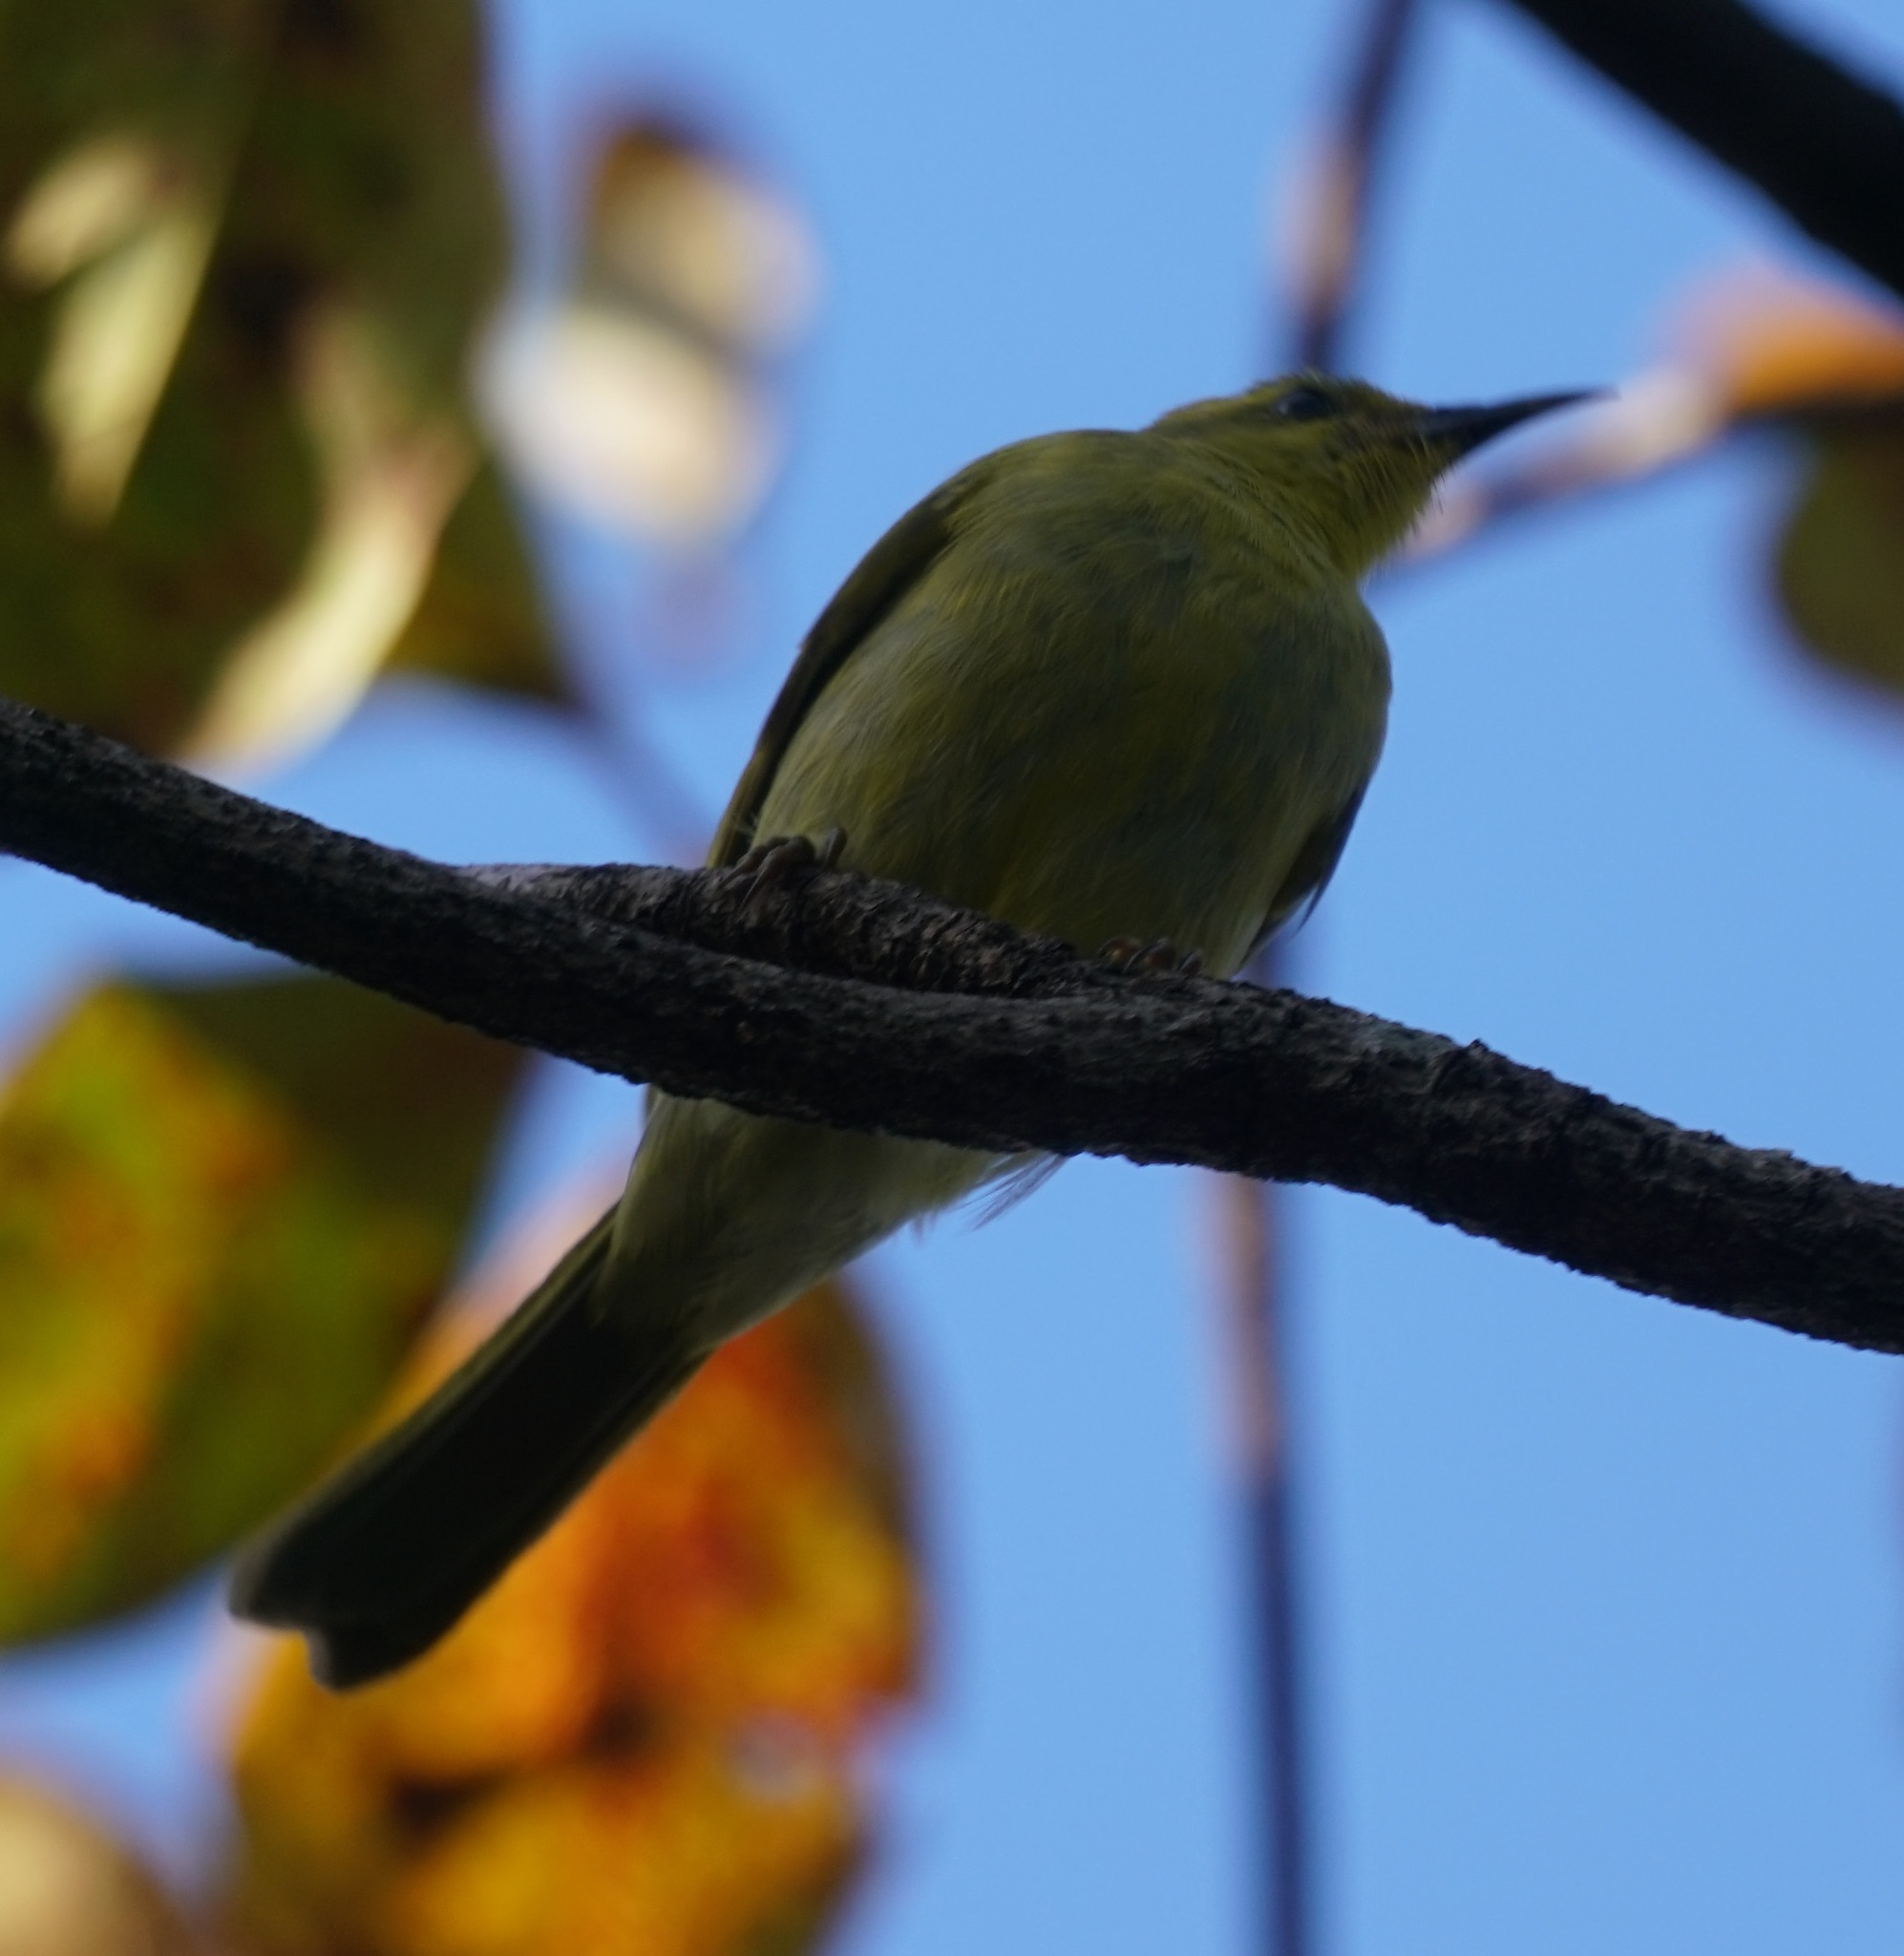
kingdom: Animalia
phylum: Chordata
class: Aves
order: Passeriformes
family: Nectariniidae
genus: Cinnyris
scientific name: Cinnyris
